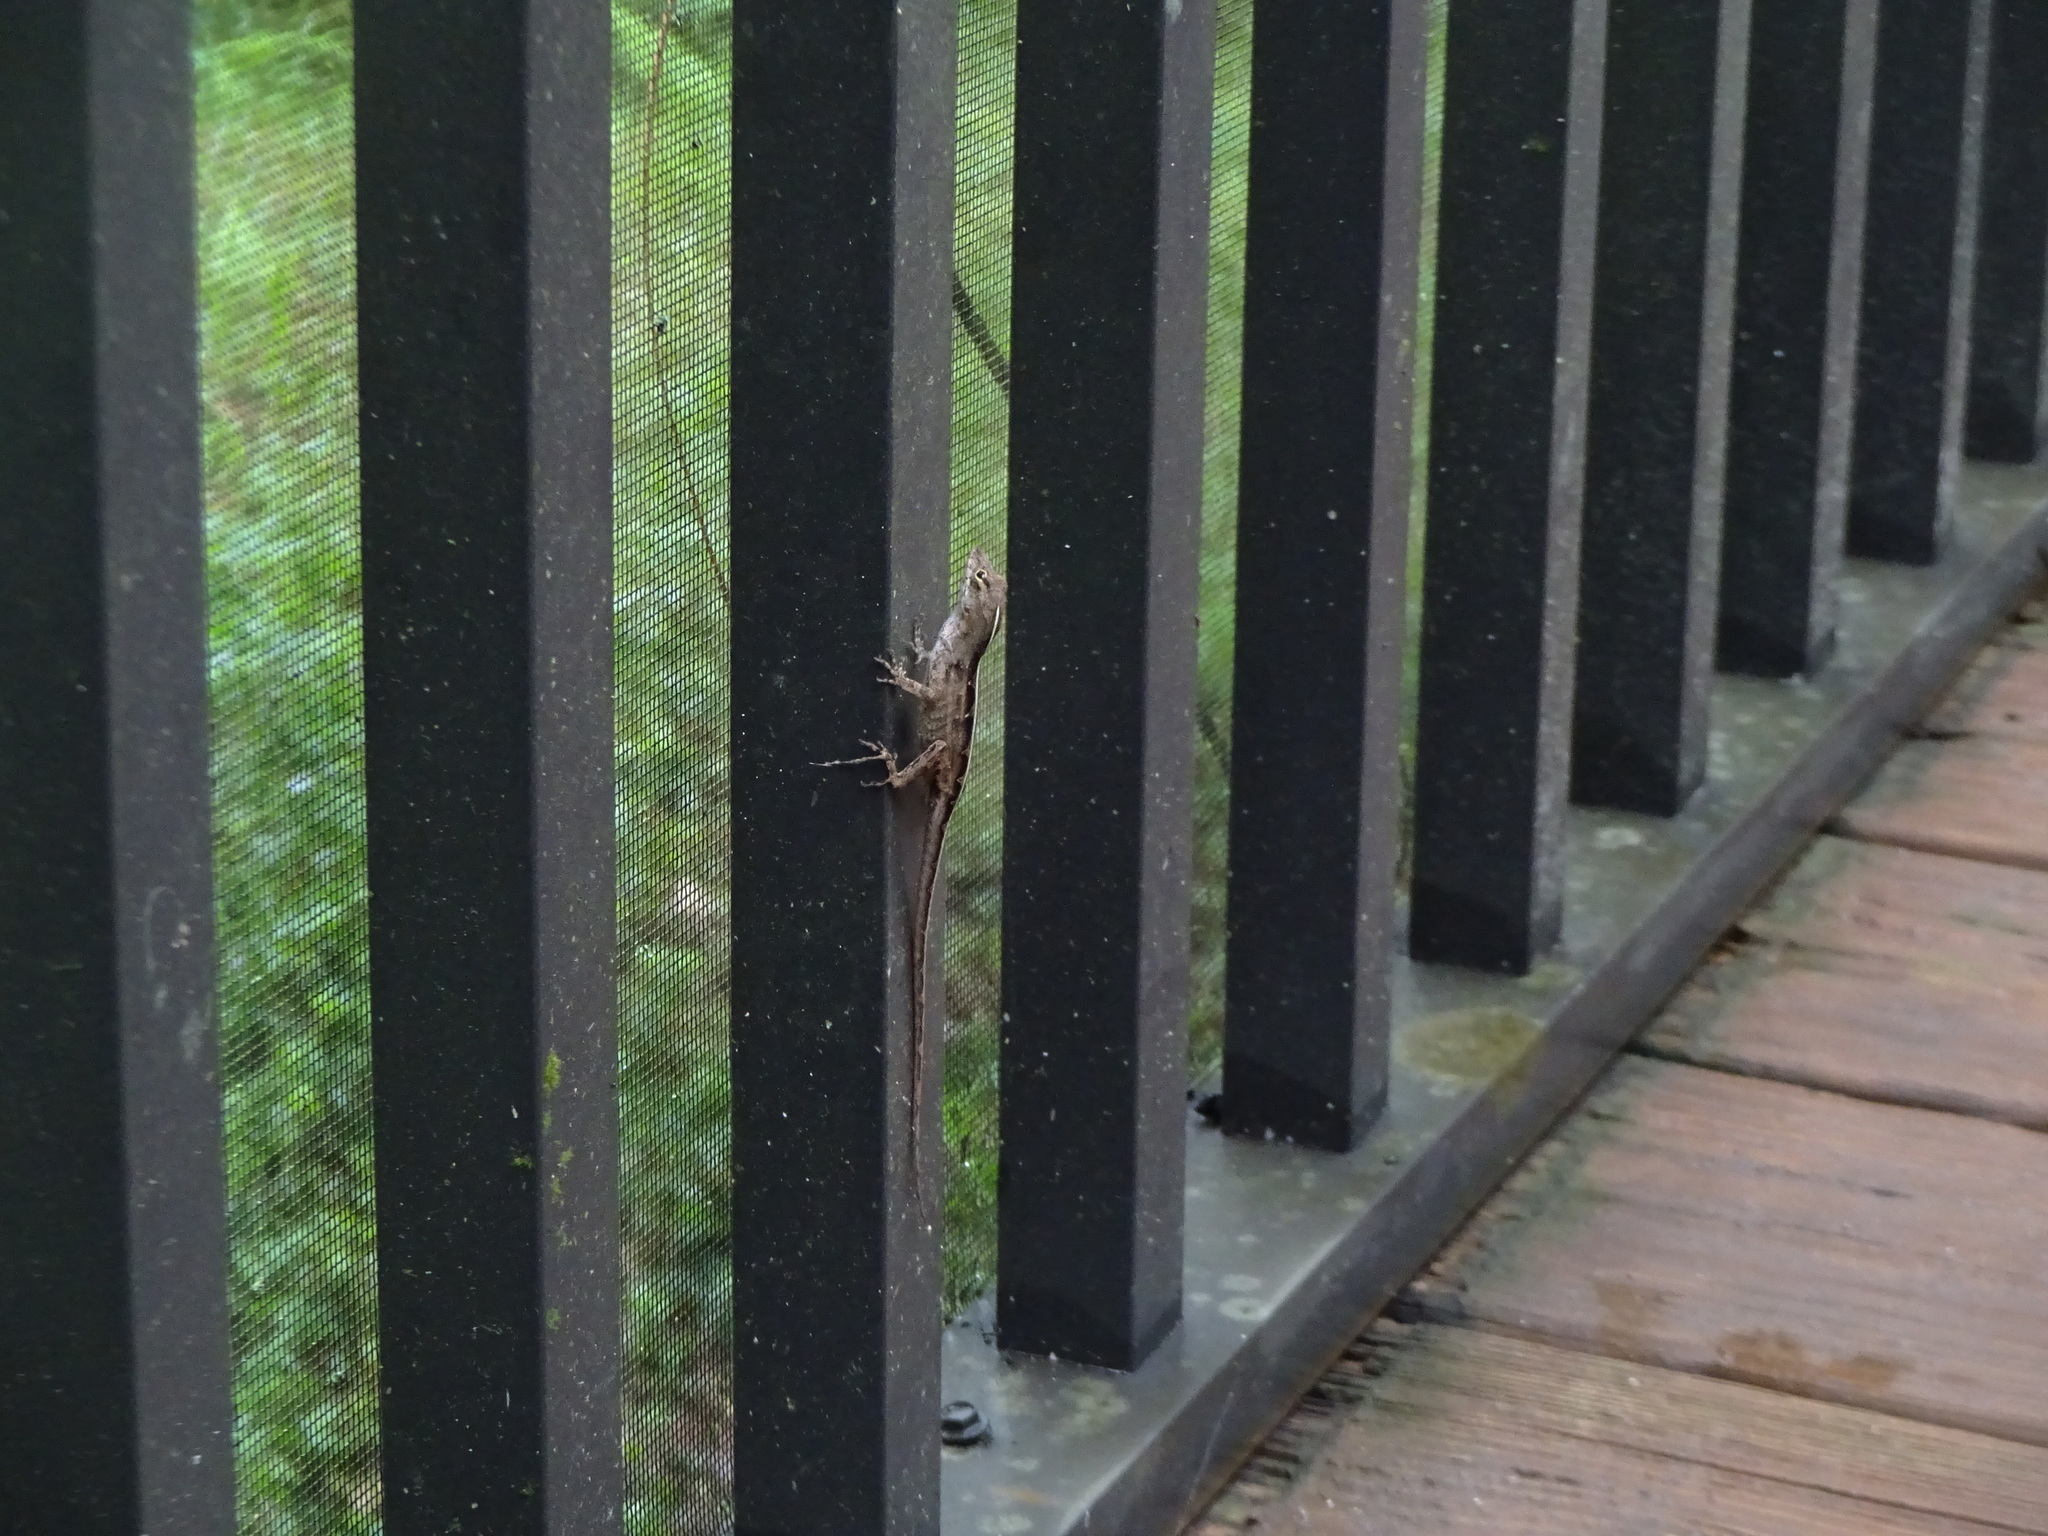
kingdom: Animalia
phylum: Chordata
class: Squamata
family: Dactyloidae
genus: Anolis
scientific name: Anolis sagrei
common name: Brown anole
